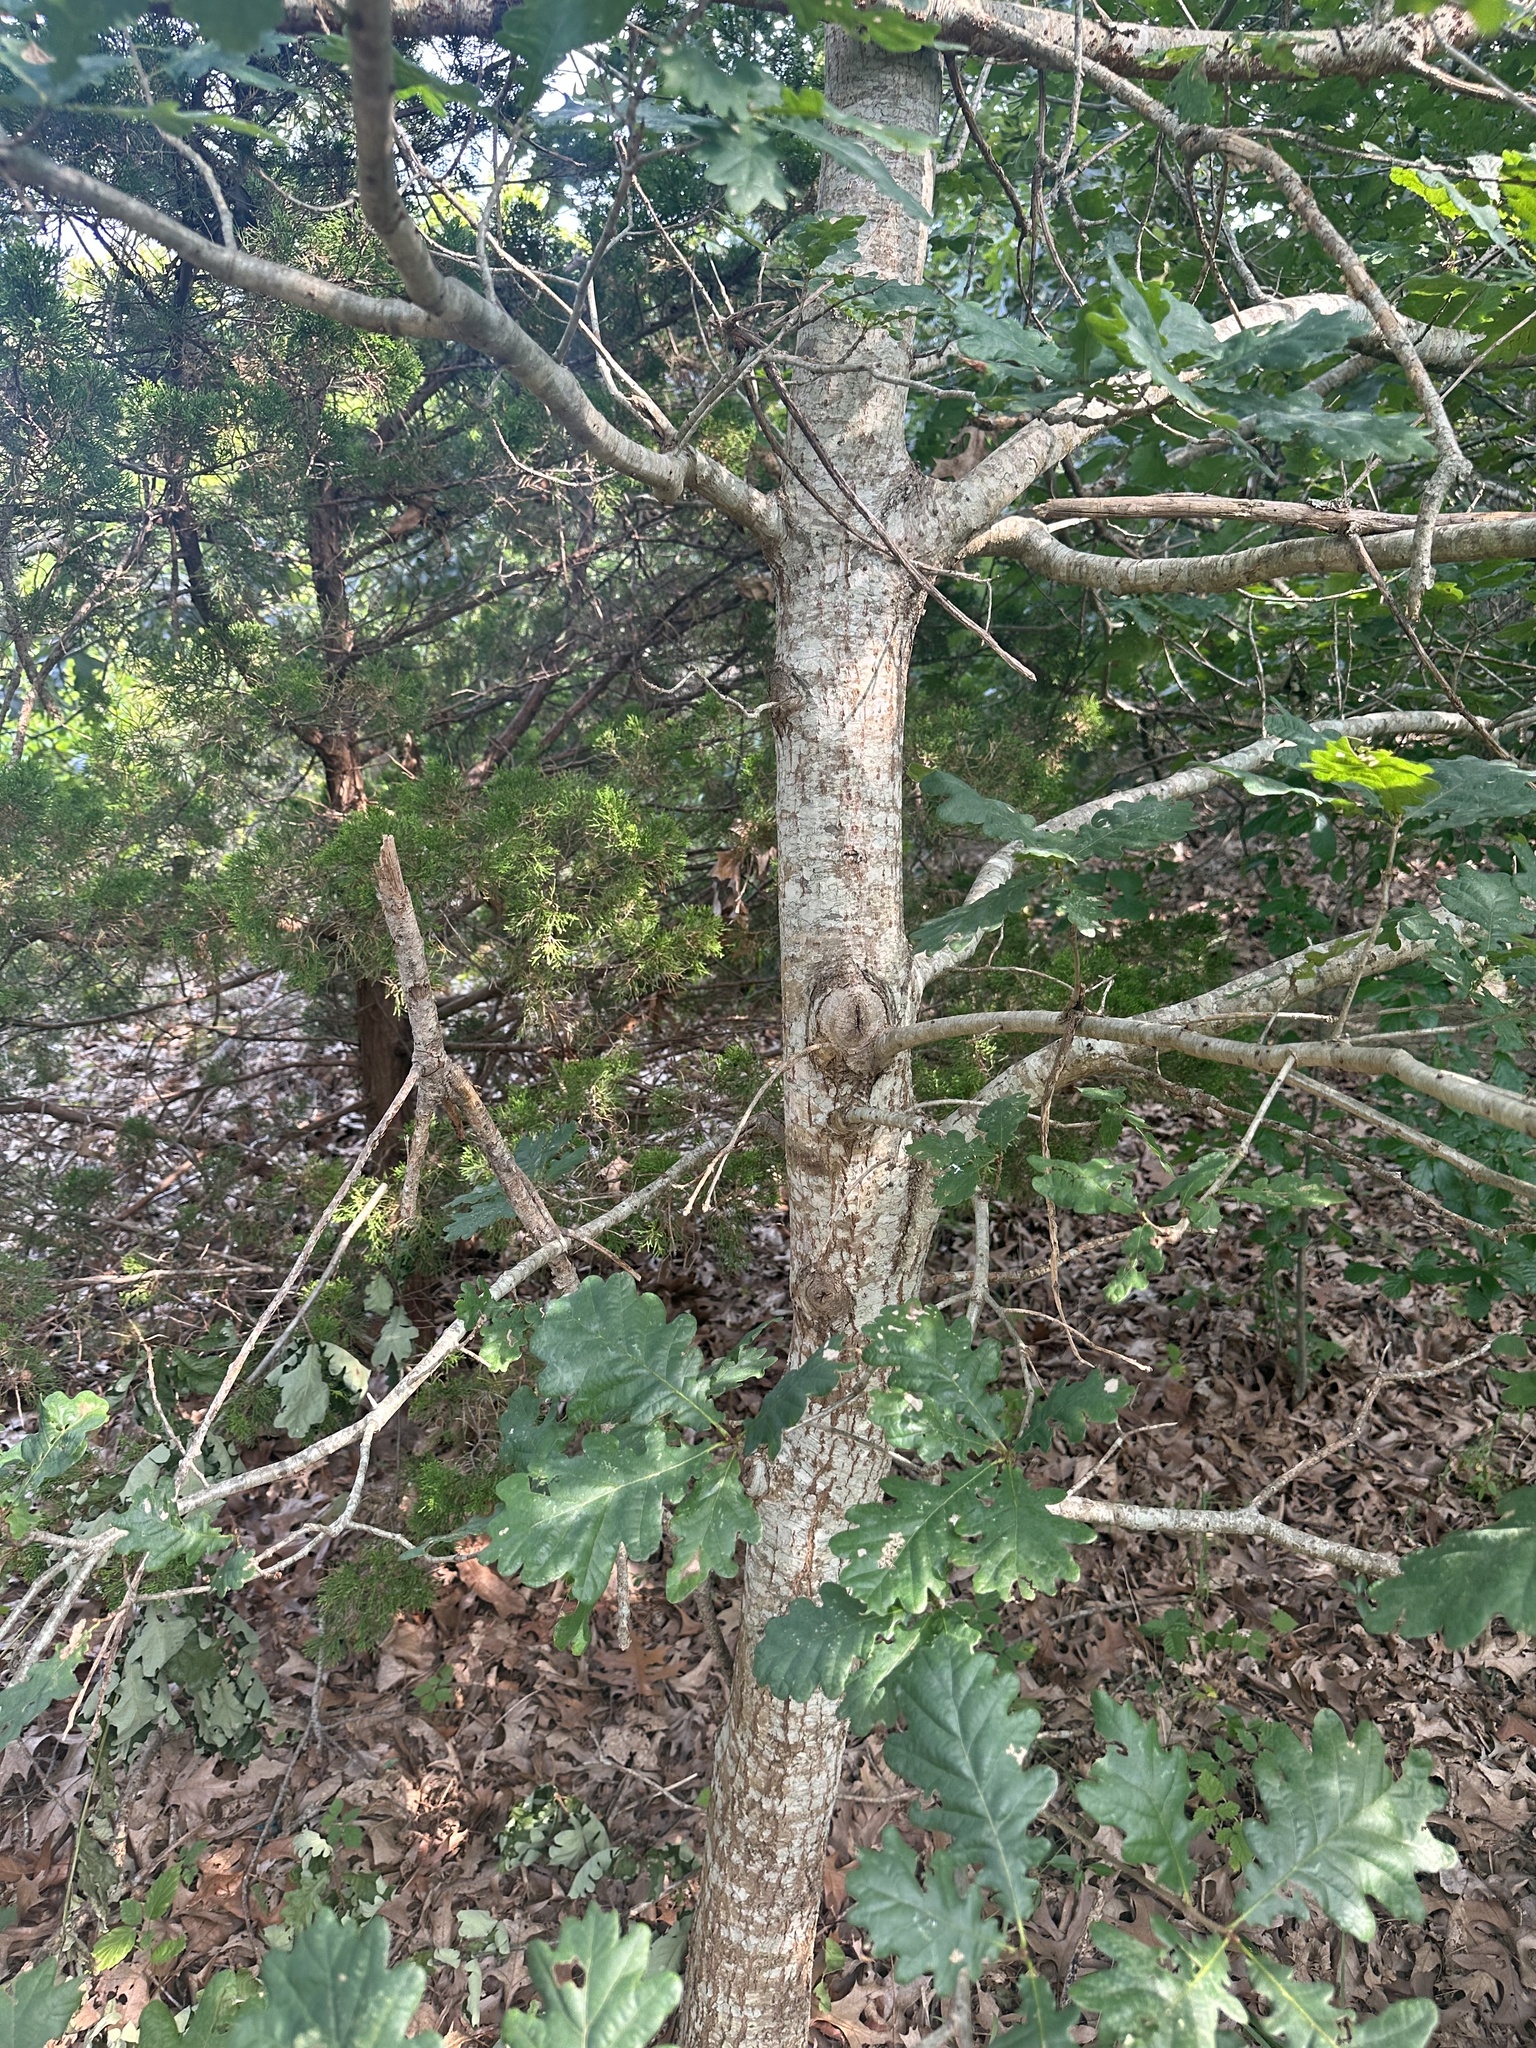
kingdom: Plantae
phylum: Tracheophyta
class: Magnoliopsida
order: Fagales
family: Fagaceae
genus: Quercus
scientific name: Quercus robur
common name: Pedunculate oak
